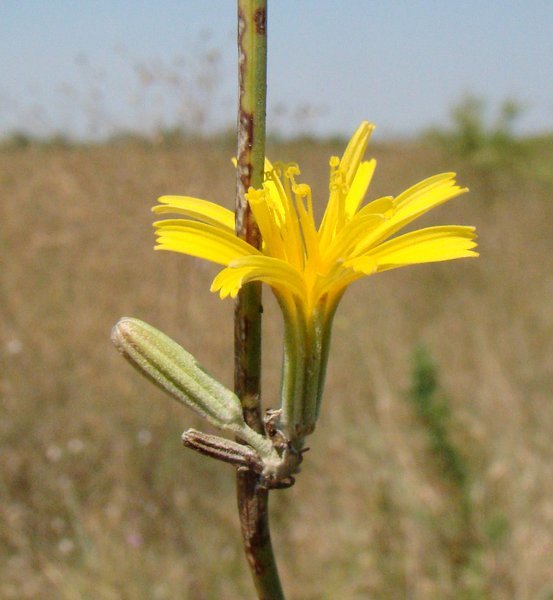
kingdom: Plantae
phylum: Tracheophyta
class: Magnoliopsida
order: Asterales
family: Asteraceae
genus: Chondrilla
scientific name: Chondrilla juncea
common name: Skeleton weed
